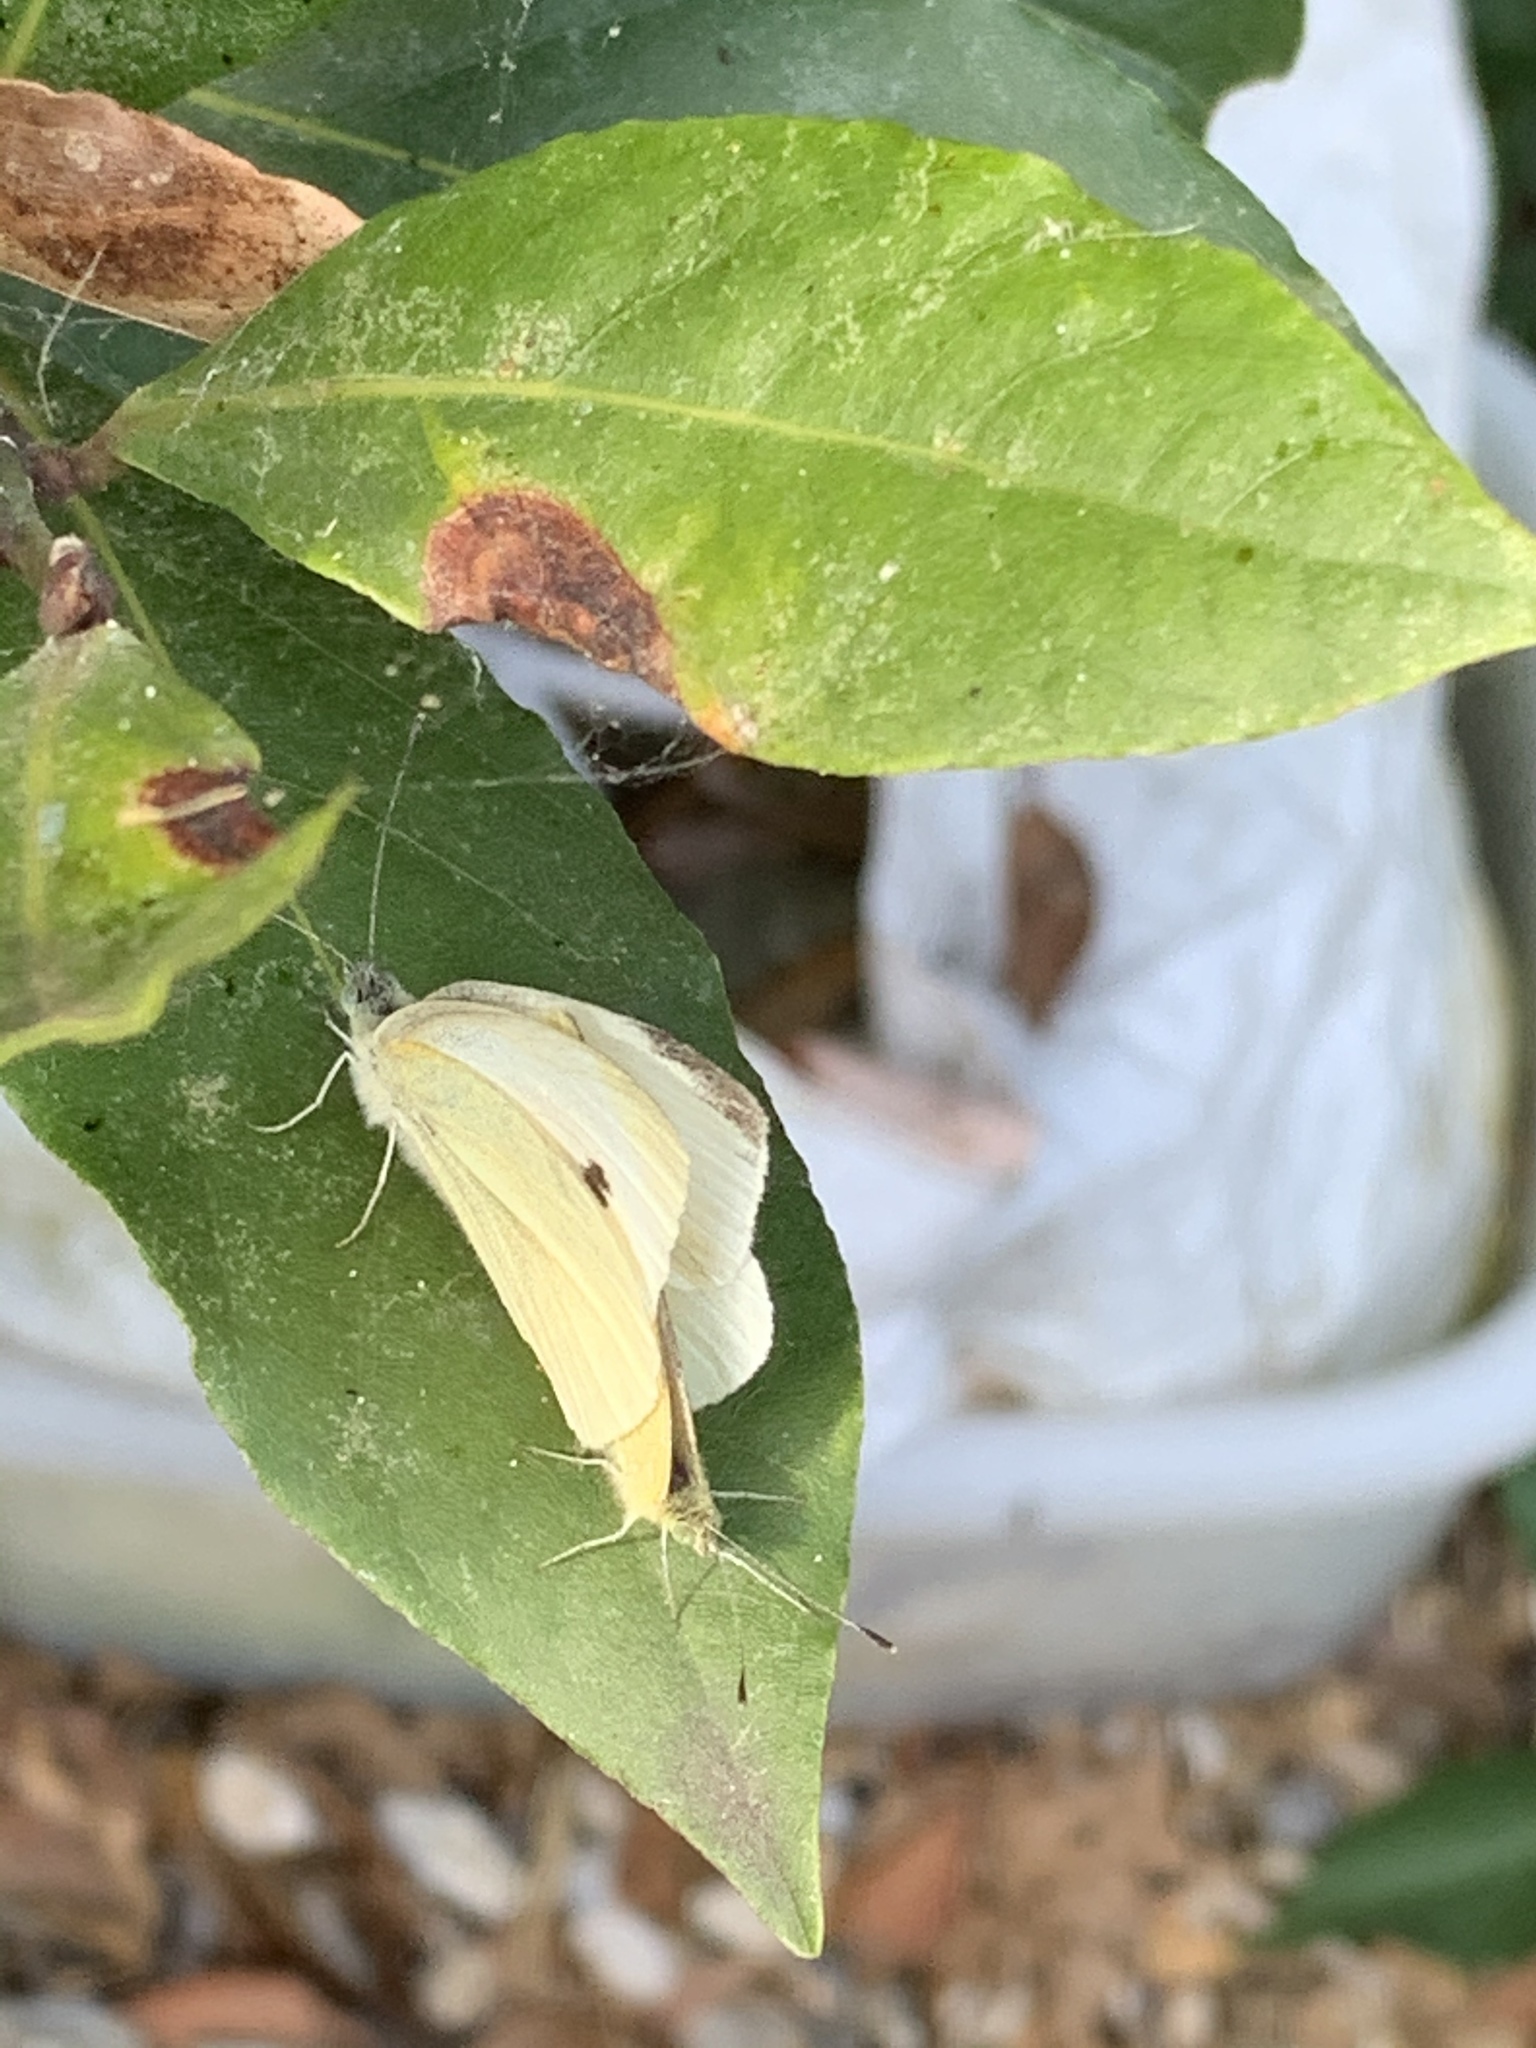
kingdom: Animalia
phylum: Arthropoda
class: Insecta
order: Lepidoptera
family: Pieridae
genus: Pieris
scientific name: Pieris rapae
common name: Small white
